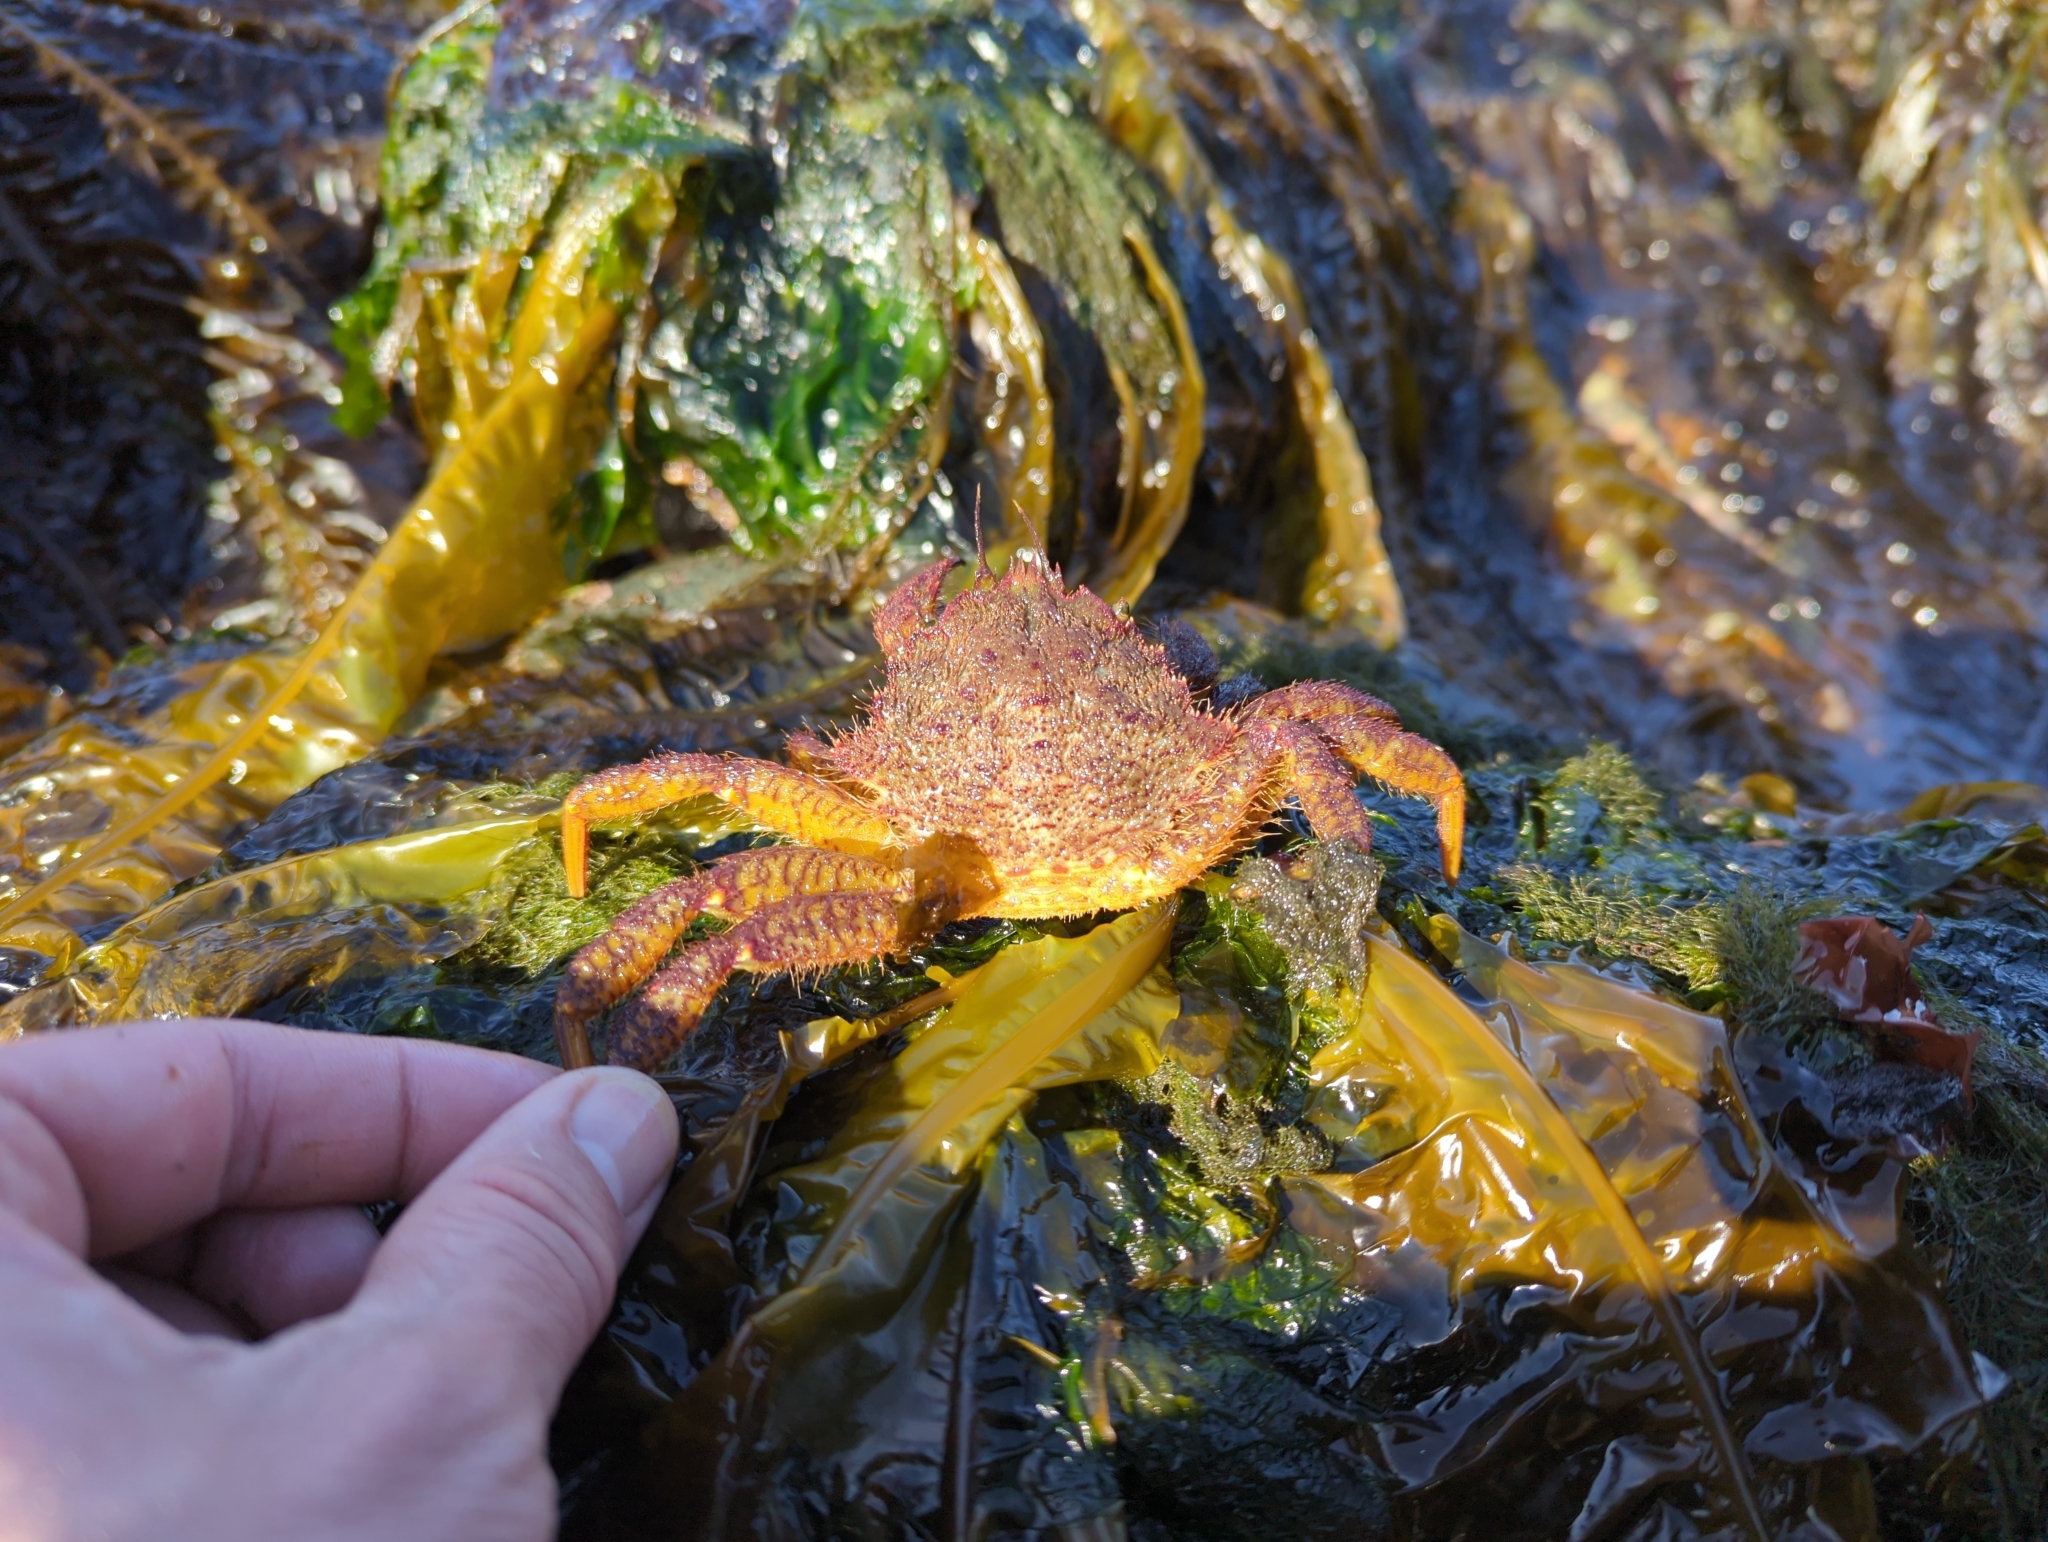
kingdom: Animalia
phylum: Arthropoda
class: Malacostraca
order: Decapoda
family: Cheiragonidae
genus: Telmessus
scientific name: Telmessus cheiragonus
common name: Helmet crab
